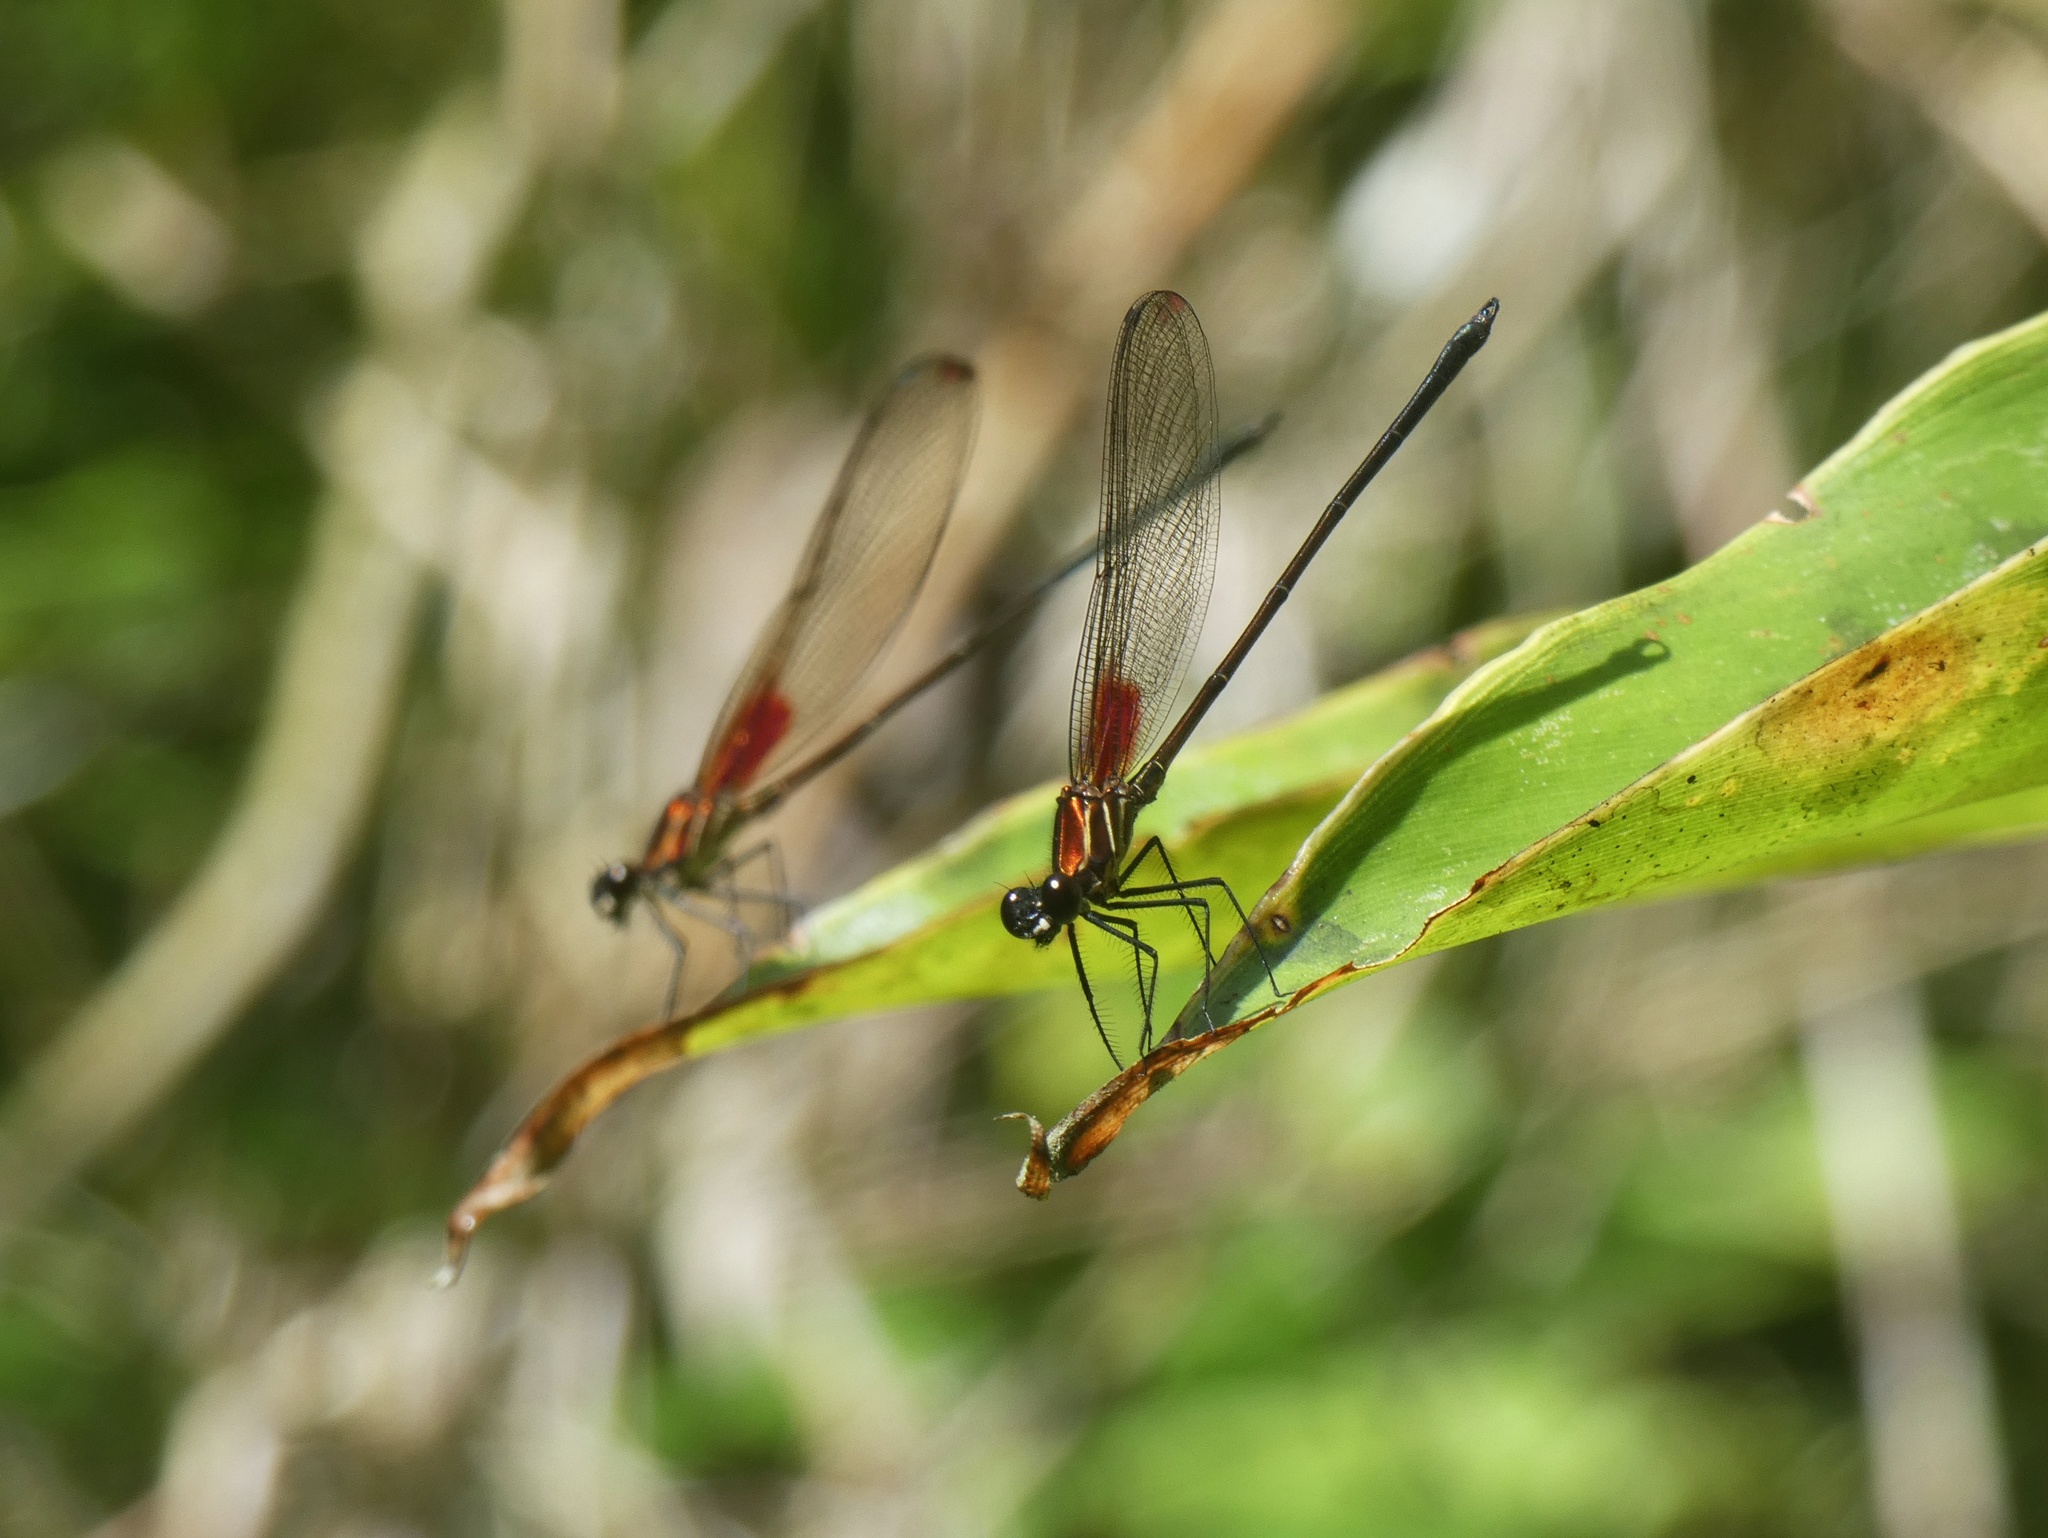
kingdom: Animalia
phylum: Arthropoda
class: Insecta
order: Odonata
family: Calopterygidae
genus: Hetaerina
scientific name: Hetaerina occisa
